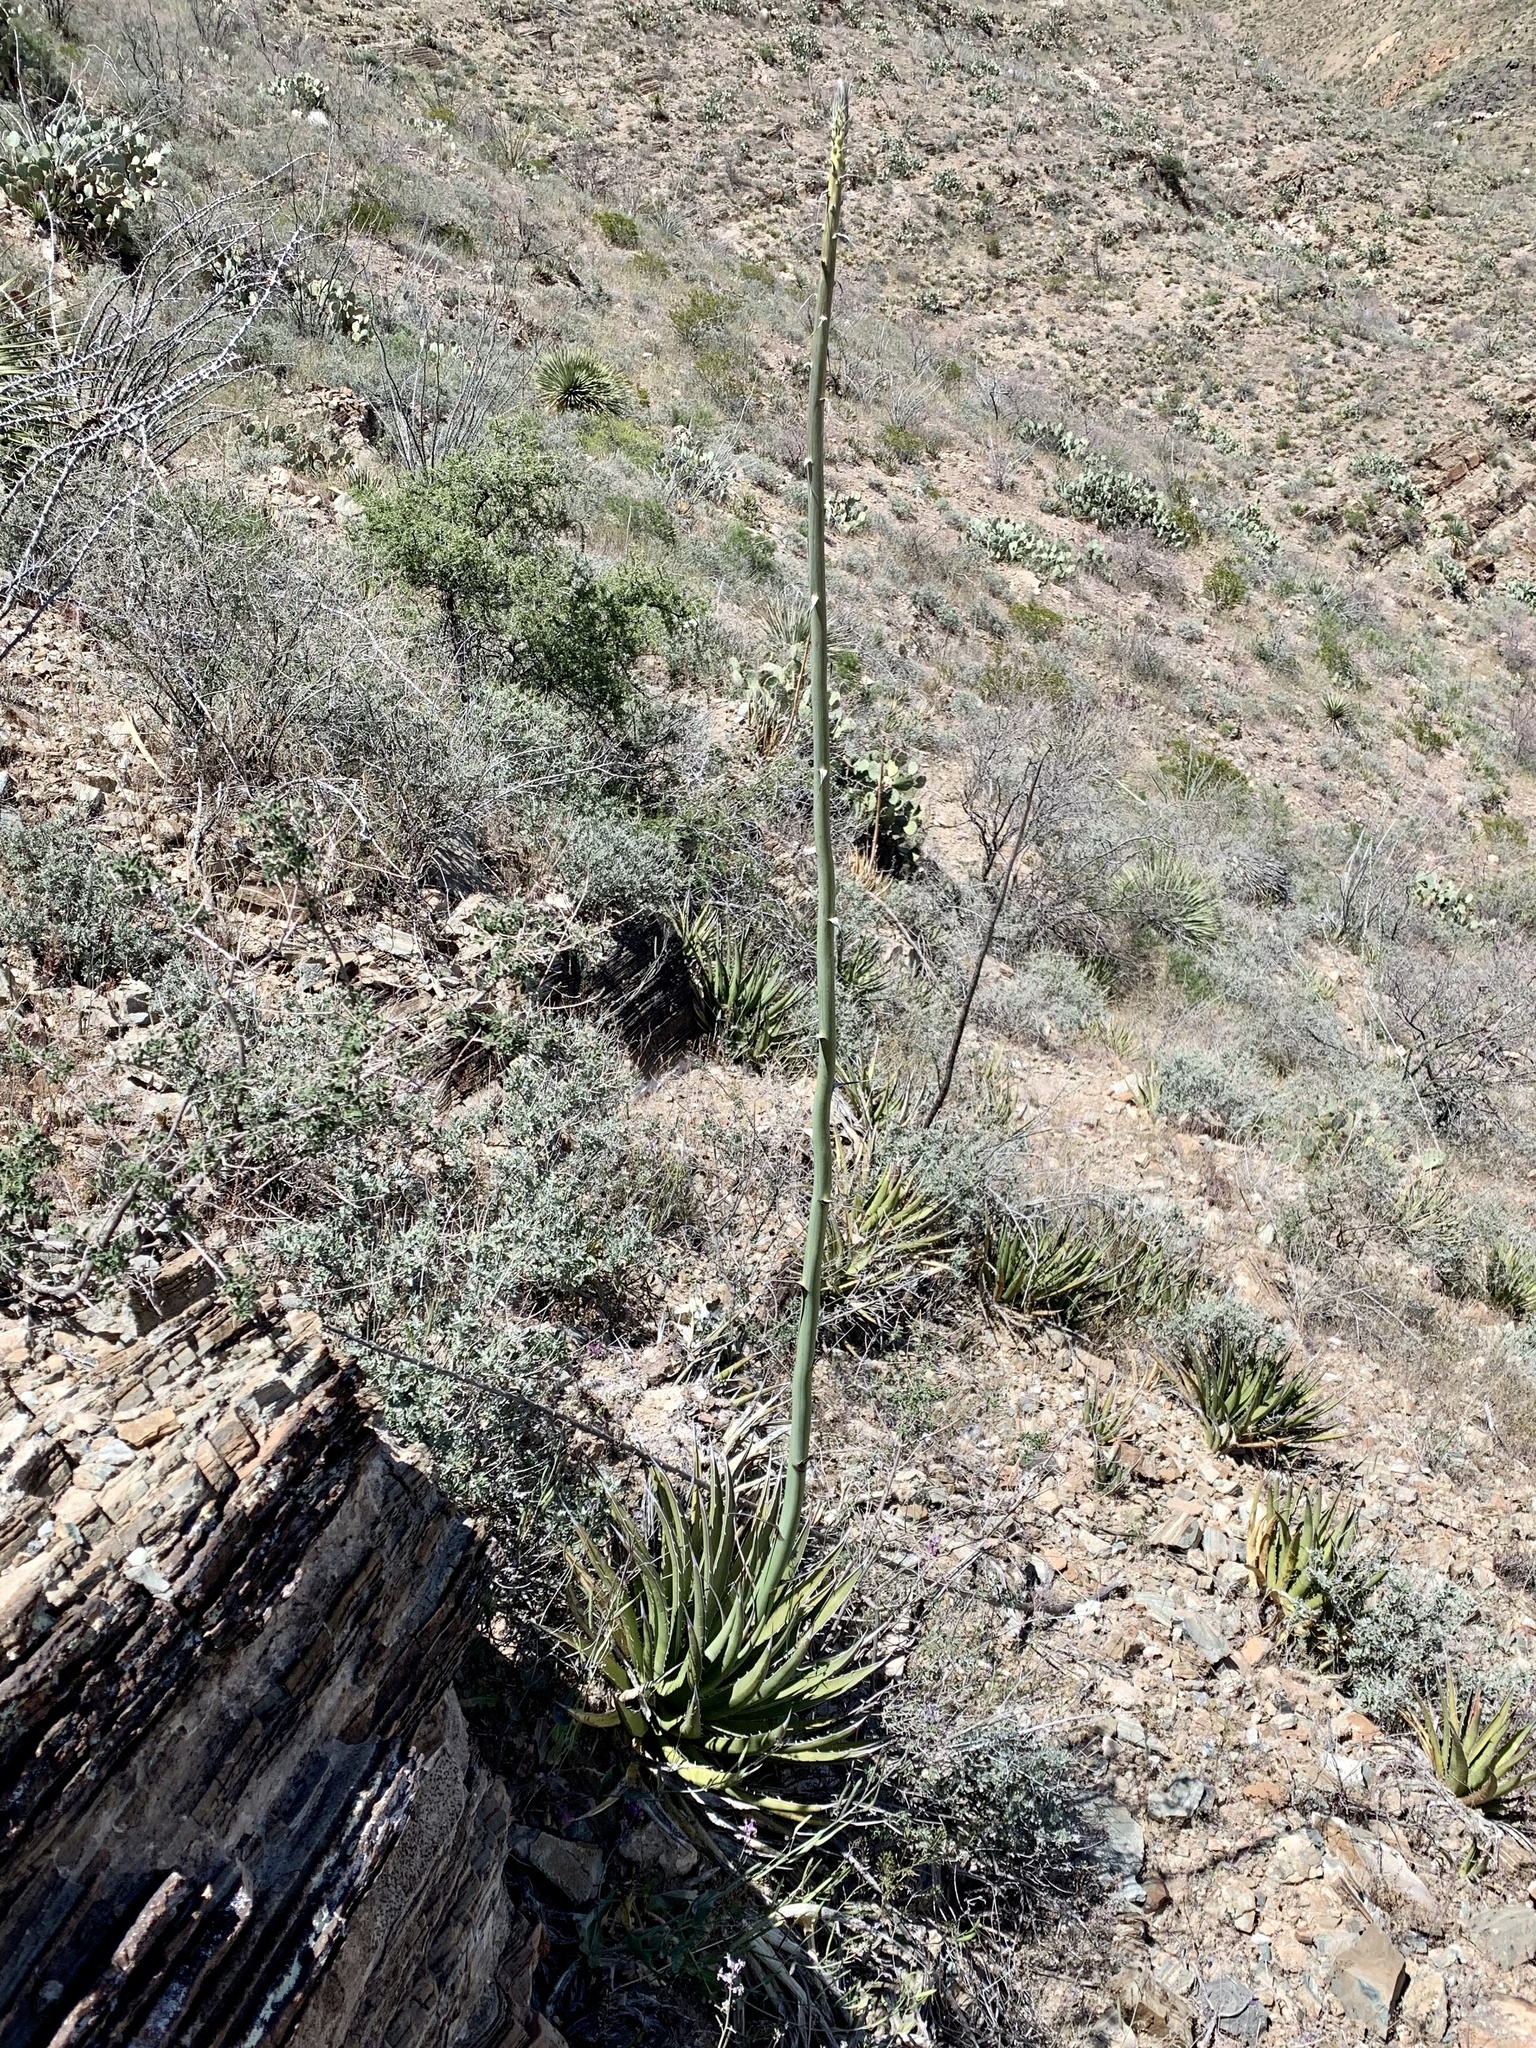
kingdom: Plantae
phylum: Tracheophyta
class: Liliopsida
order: Asparagales
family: Asparagaceae
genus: Agave
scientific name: Agave lechuguilla
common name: Lecheguilla agave
